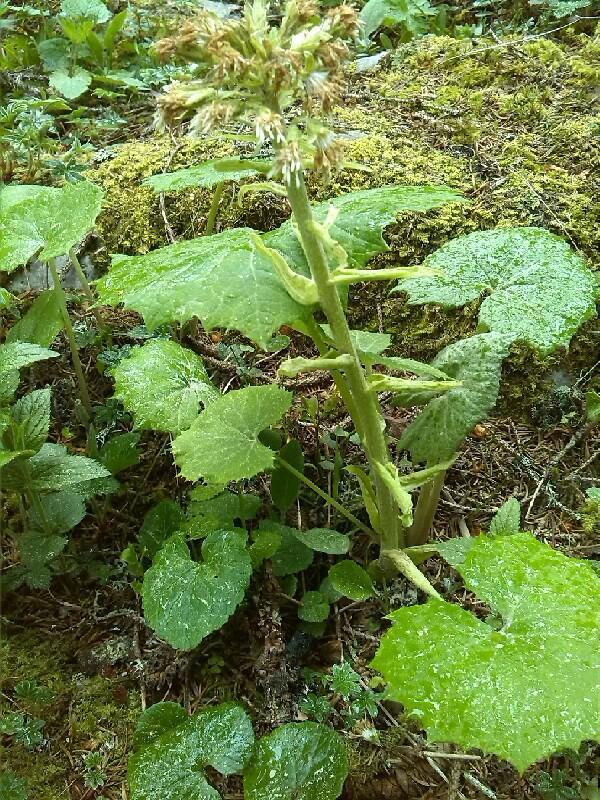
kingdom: Plantae
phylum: Tracheophyta
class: Magnoliopsida
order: Asterales
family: Asteraceae
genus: Petasites
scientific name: Petasites albus
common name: White butterbur
